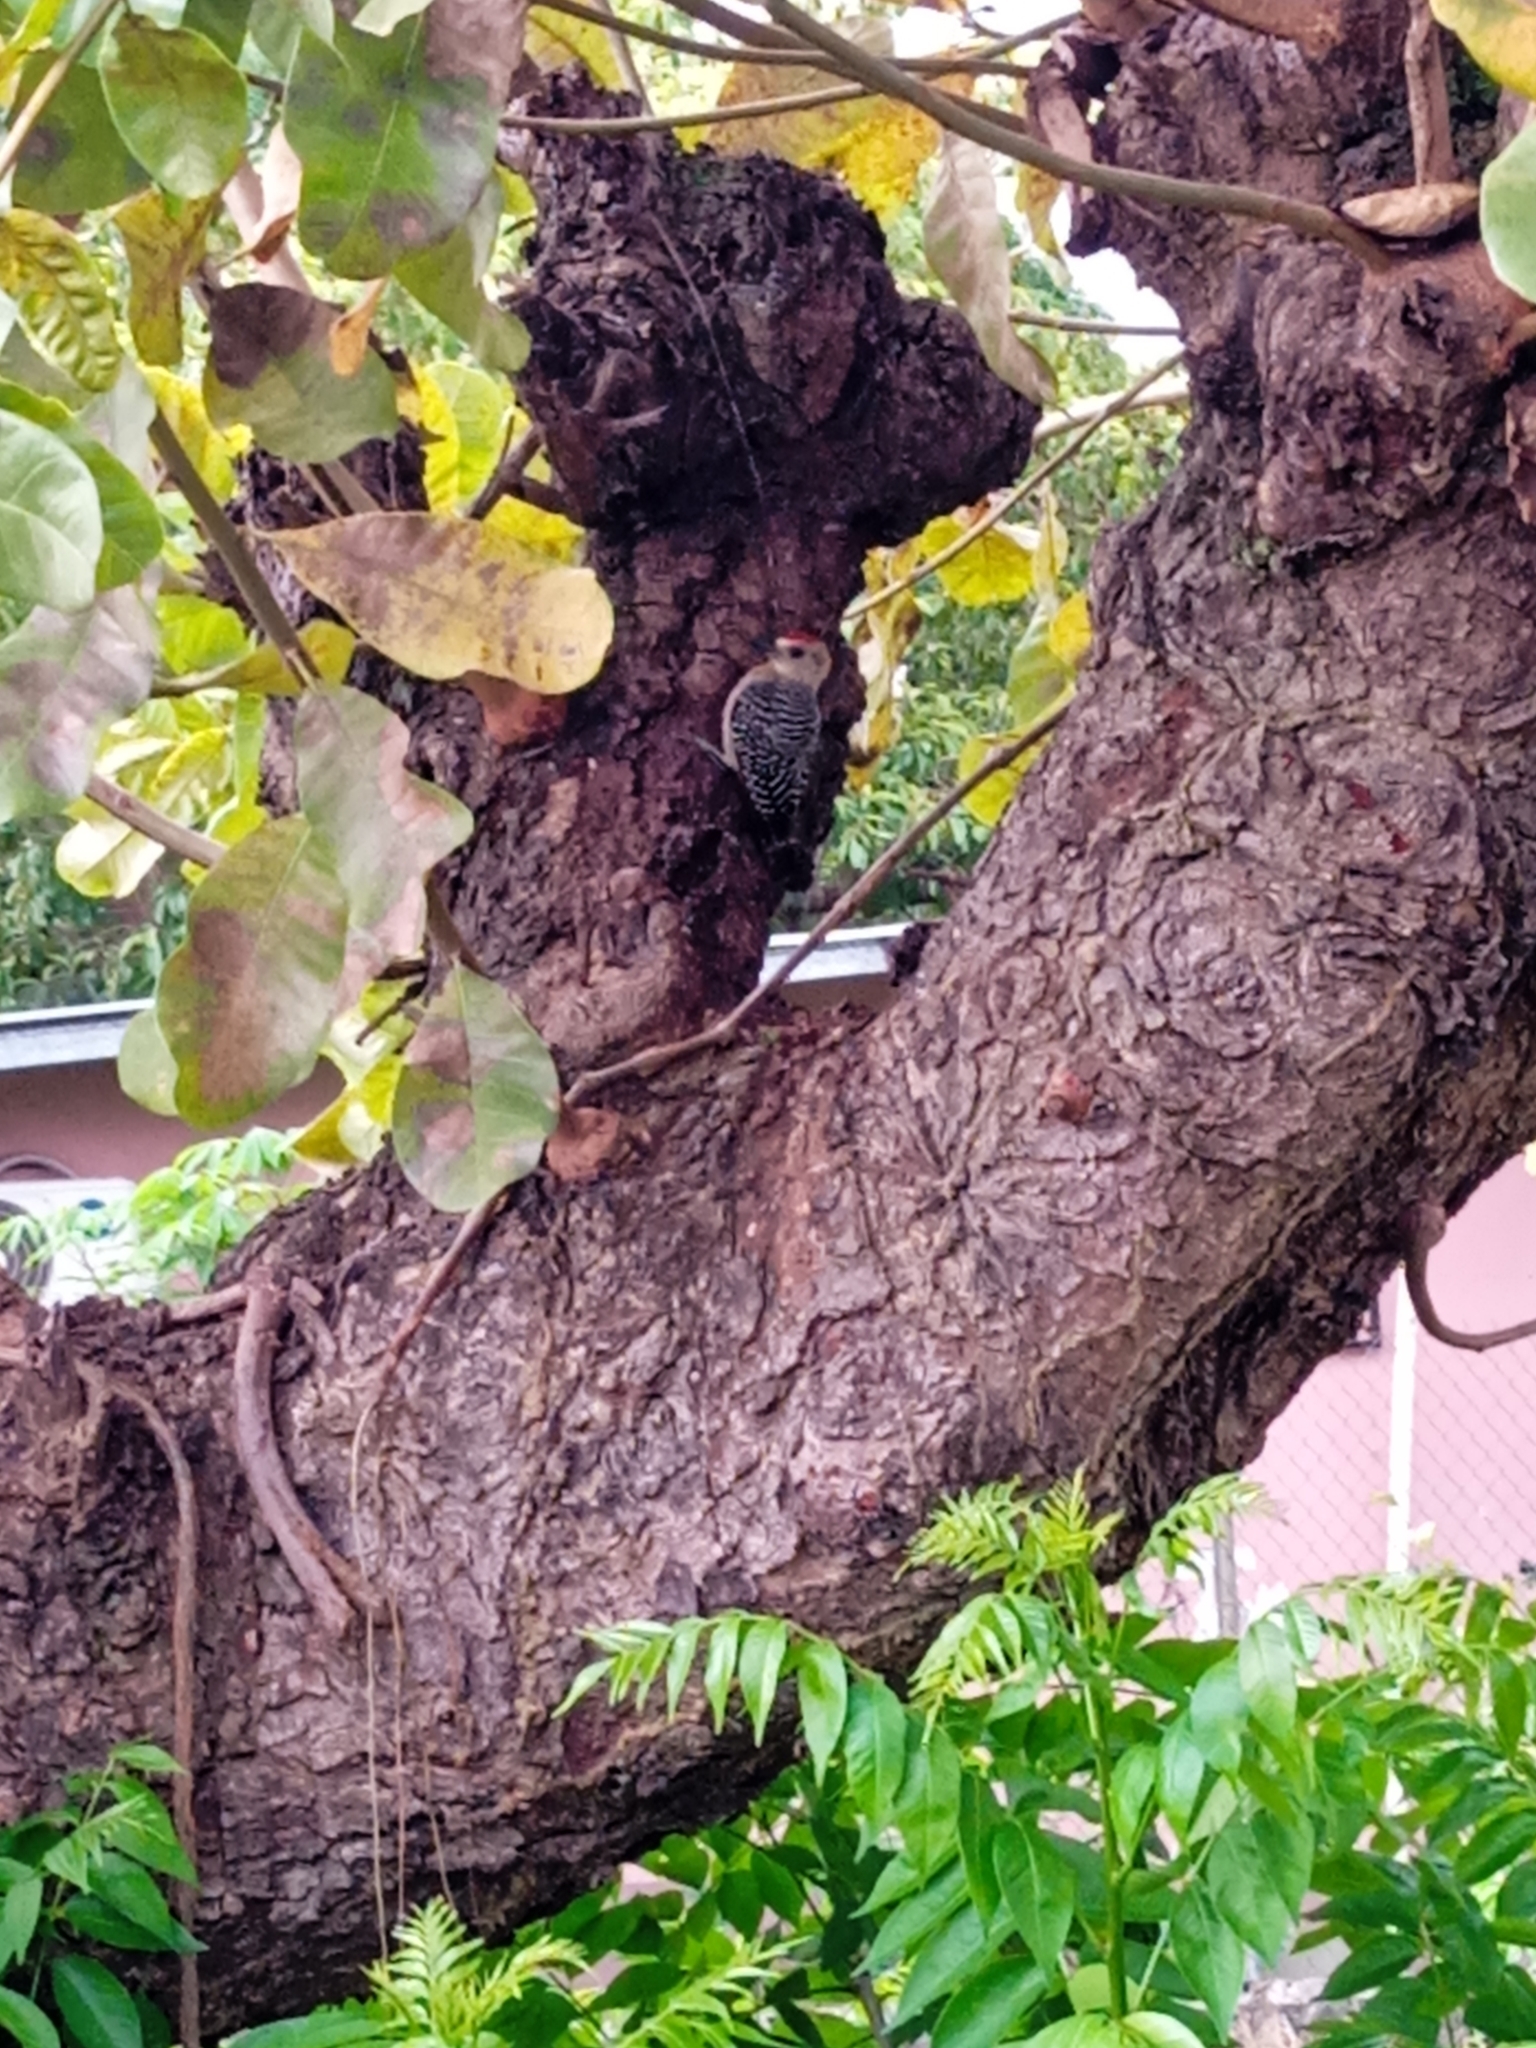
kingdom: Animalia
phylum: Chordata
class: Aves
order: Piciformes
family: Picidae
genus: Melanerpes
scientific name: Melanerpes rubricapillus
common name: Red-crowned woodpecker
